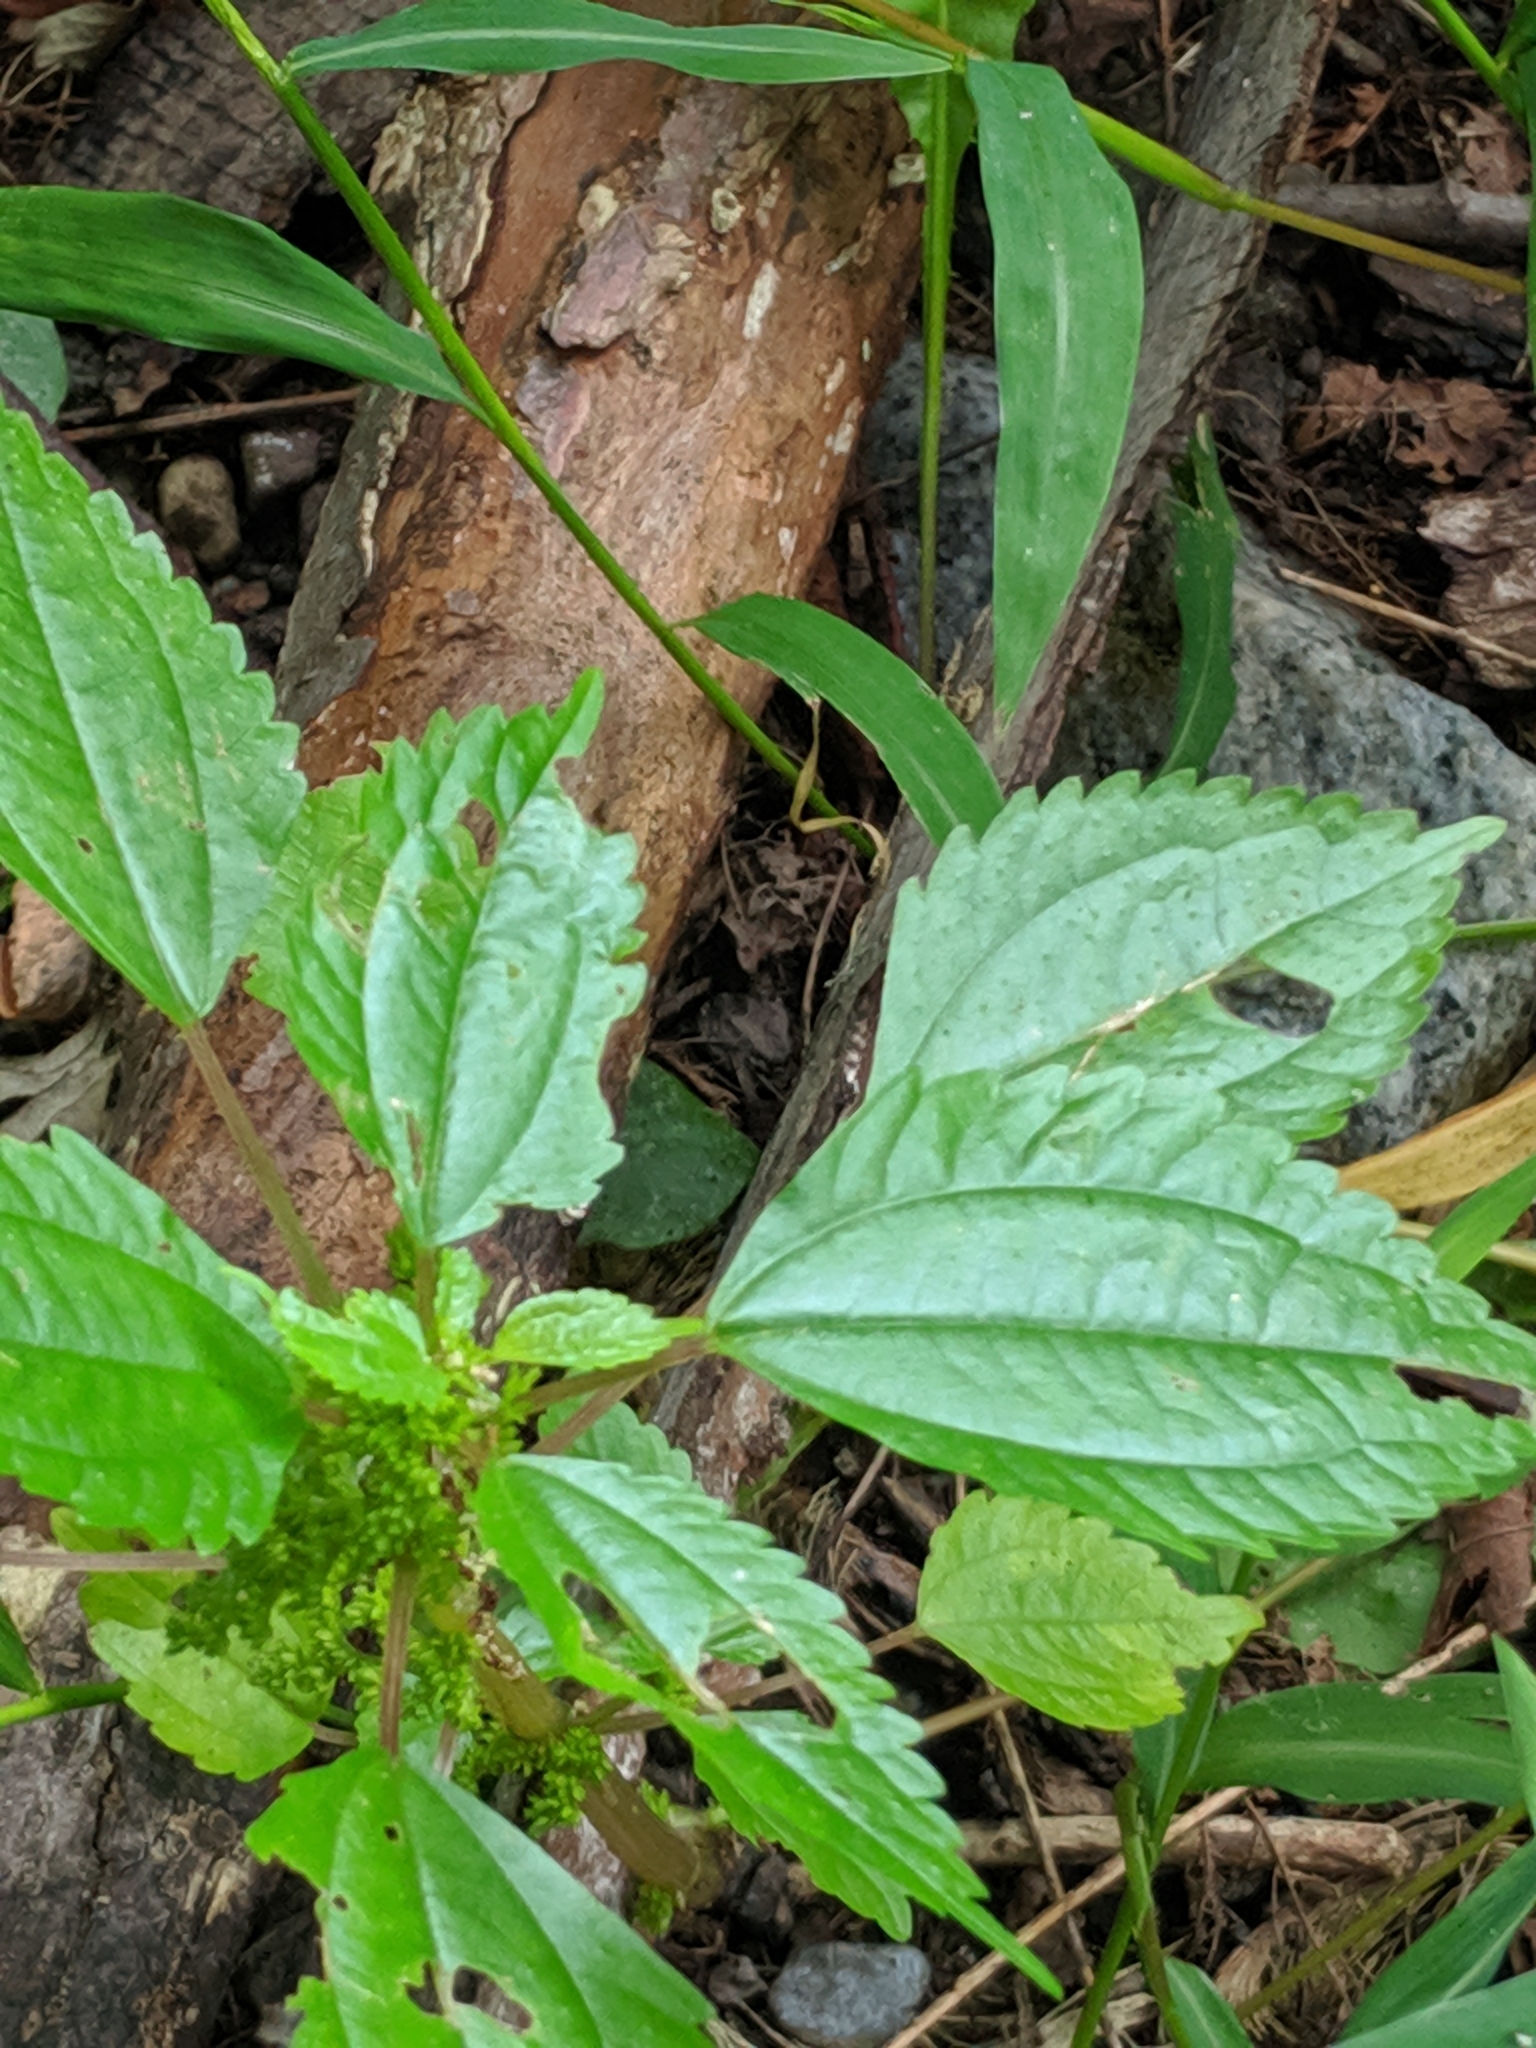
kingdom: Plantae
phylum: Tracheophyta
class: Magnoliopsida
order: Rosales
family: Urticaceae
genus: Pilea
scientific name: Pilea pumila
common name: Clearweed
